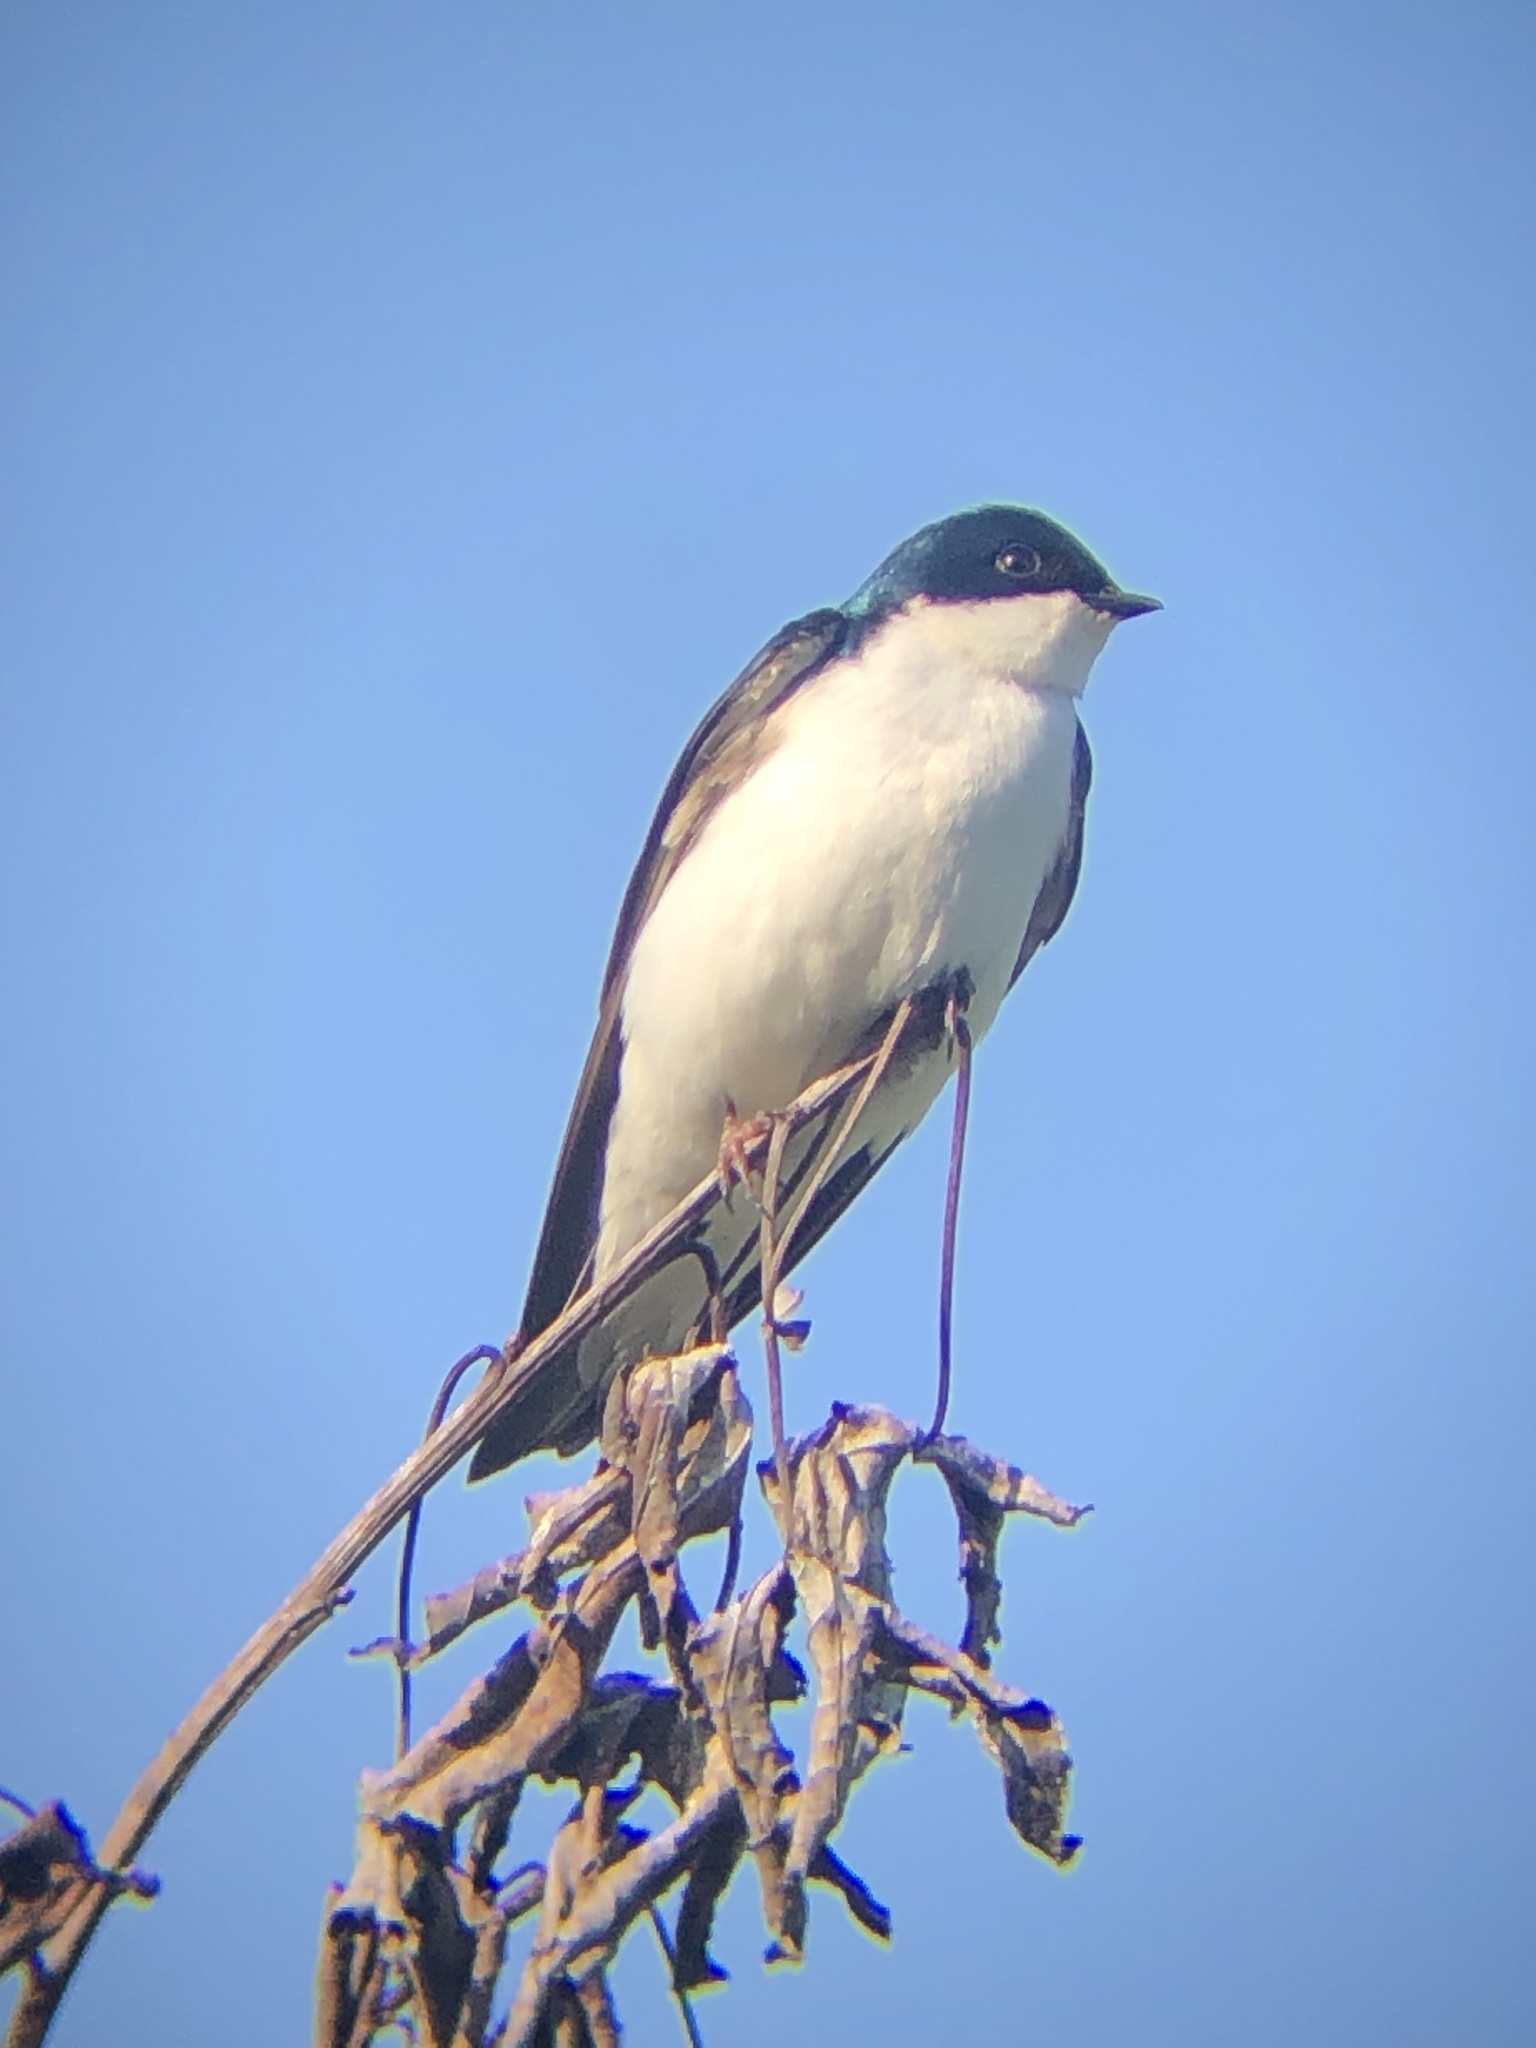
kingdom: Animalia
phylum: Chordata
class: Aves
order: Passeriformes
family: Hirundinidae
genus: Tachycineta
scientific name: Tachycineta bicolor
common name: Tree swallow
